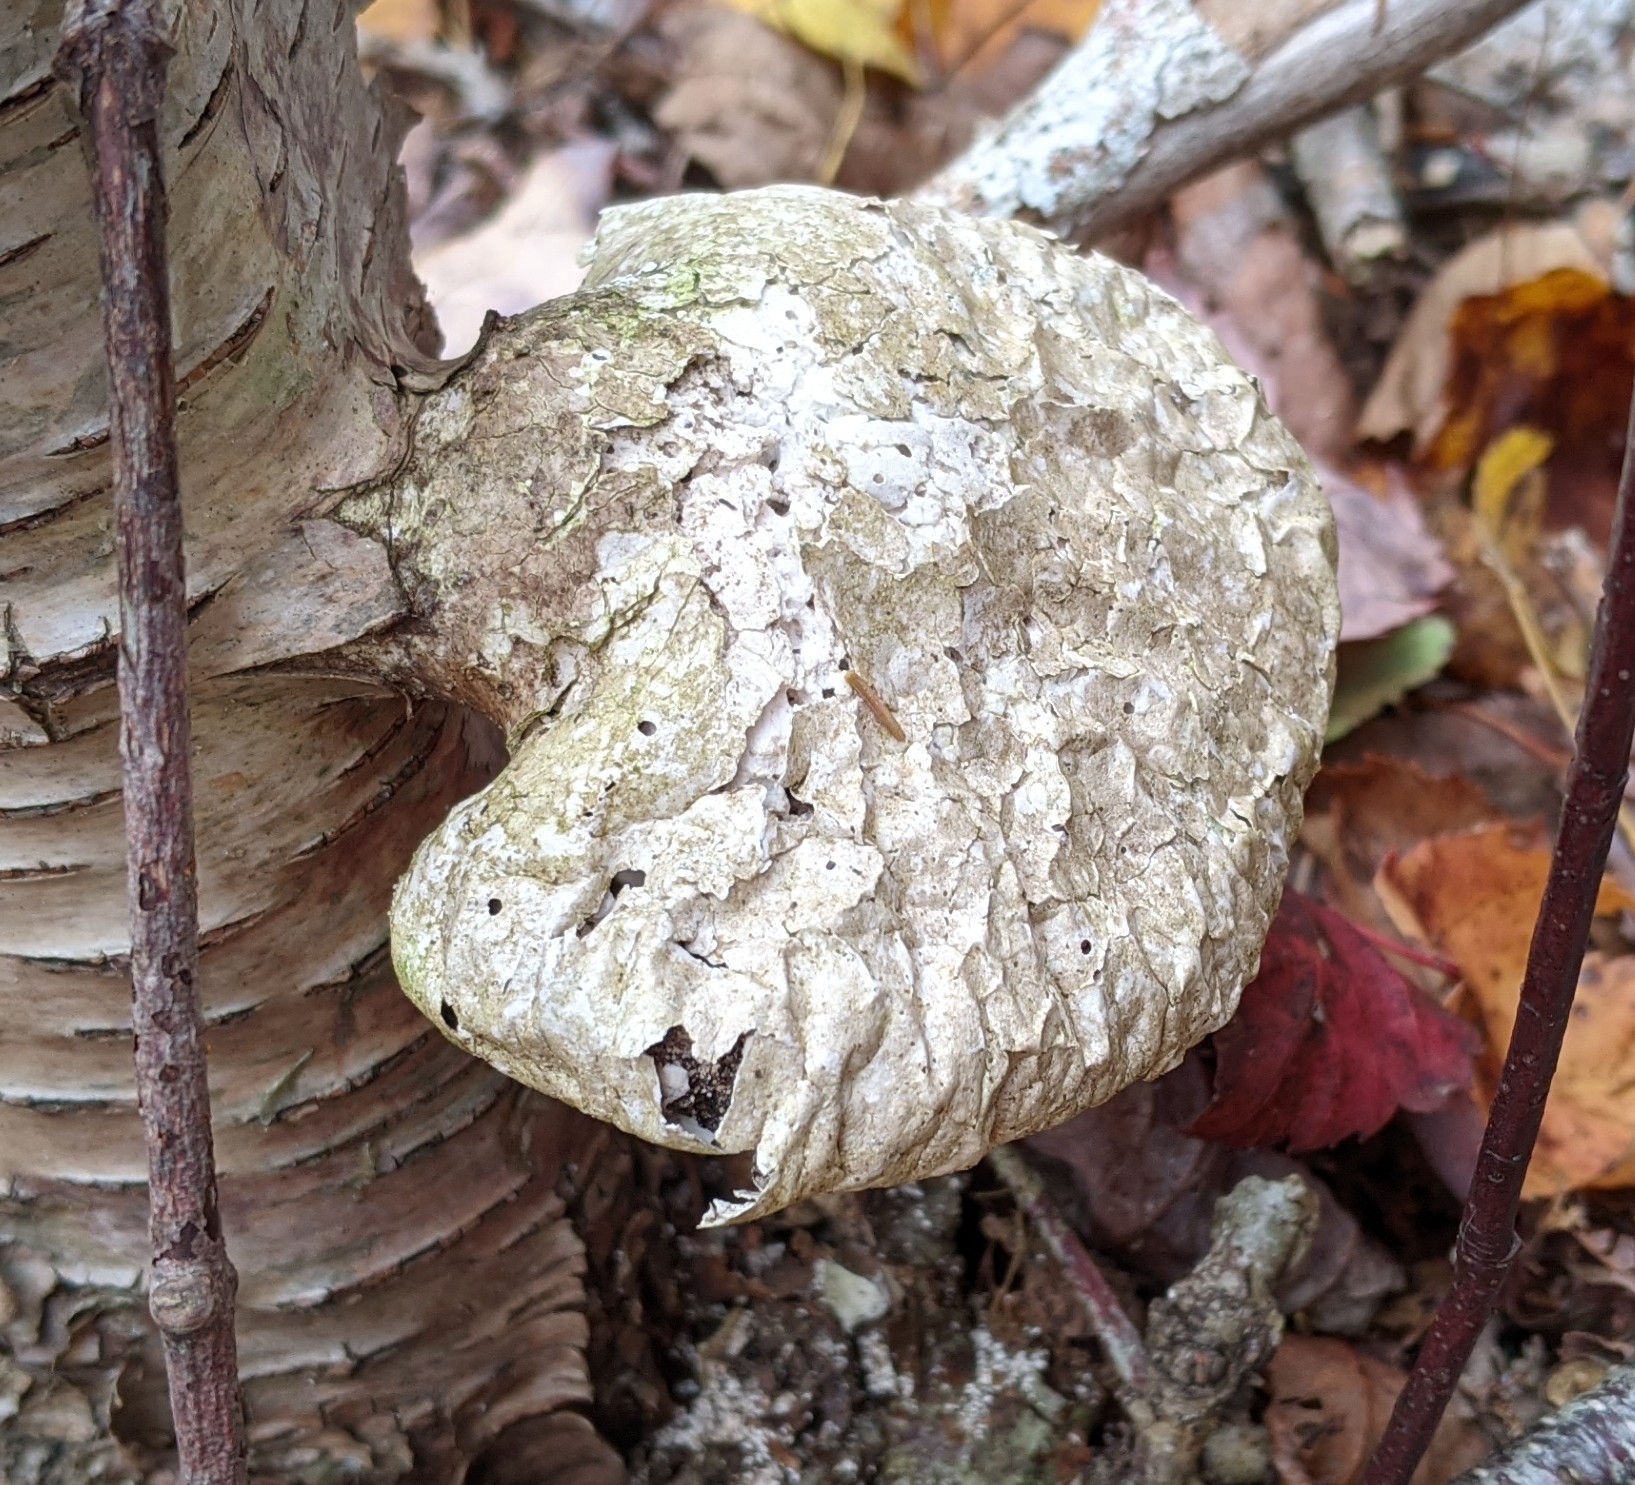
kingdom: Fungi
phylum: Basidiomycota
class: Agaricomycetes
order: Polyporales
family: Fomitopsidaceae
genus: Fomitopsis
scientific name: Fomitopsis betulina
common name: Birch polypore
